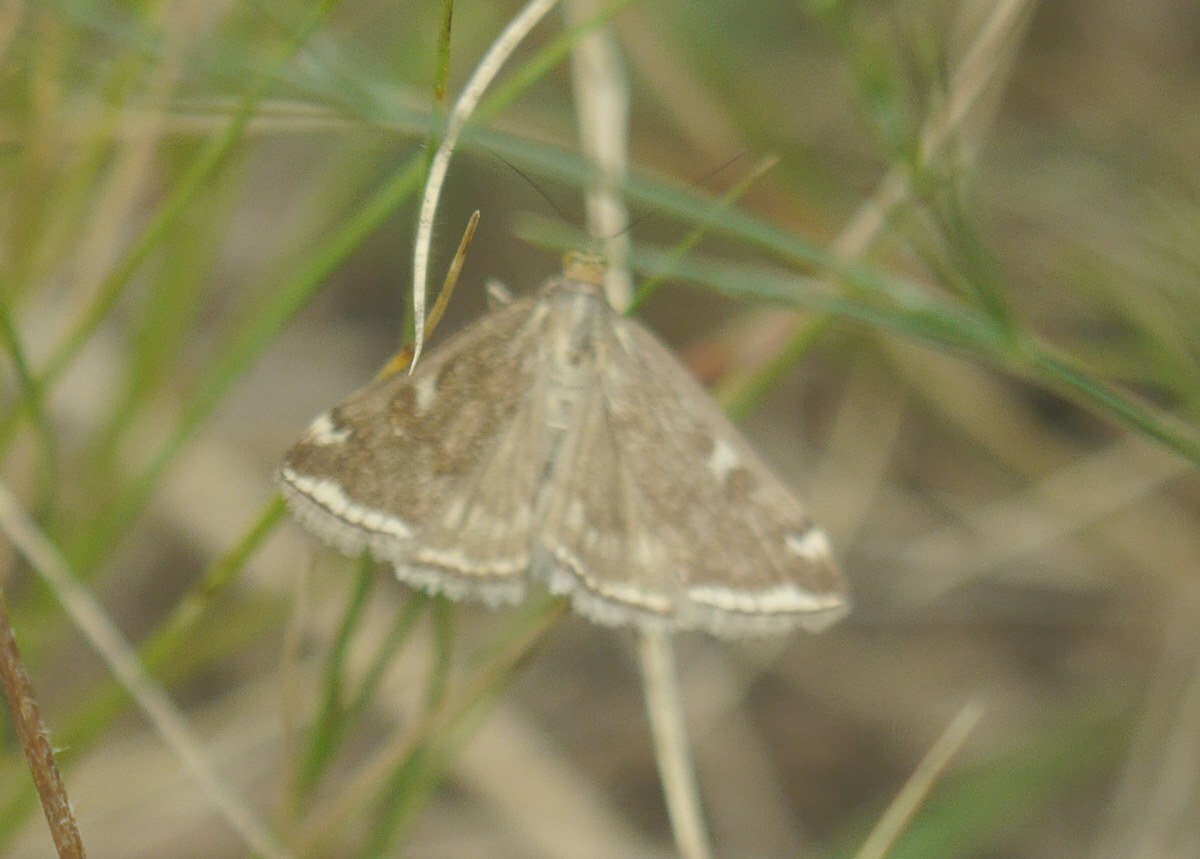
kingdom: Animalia
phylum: Arthropoda
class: Insecta
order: Lepidoptera
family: Crambidae
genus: Loxostege
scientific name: Loxostege sticticalis
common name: Crambid moth
